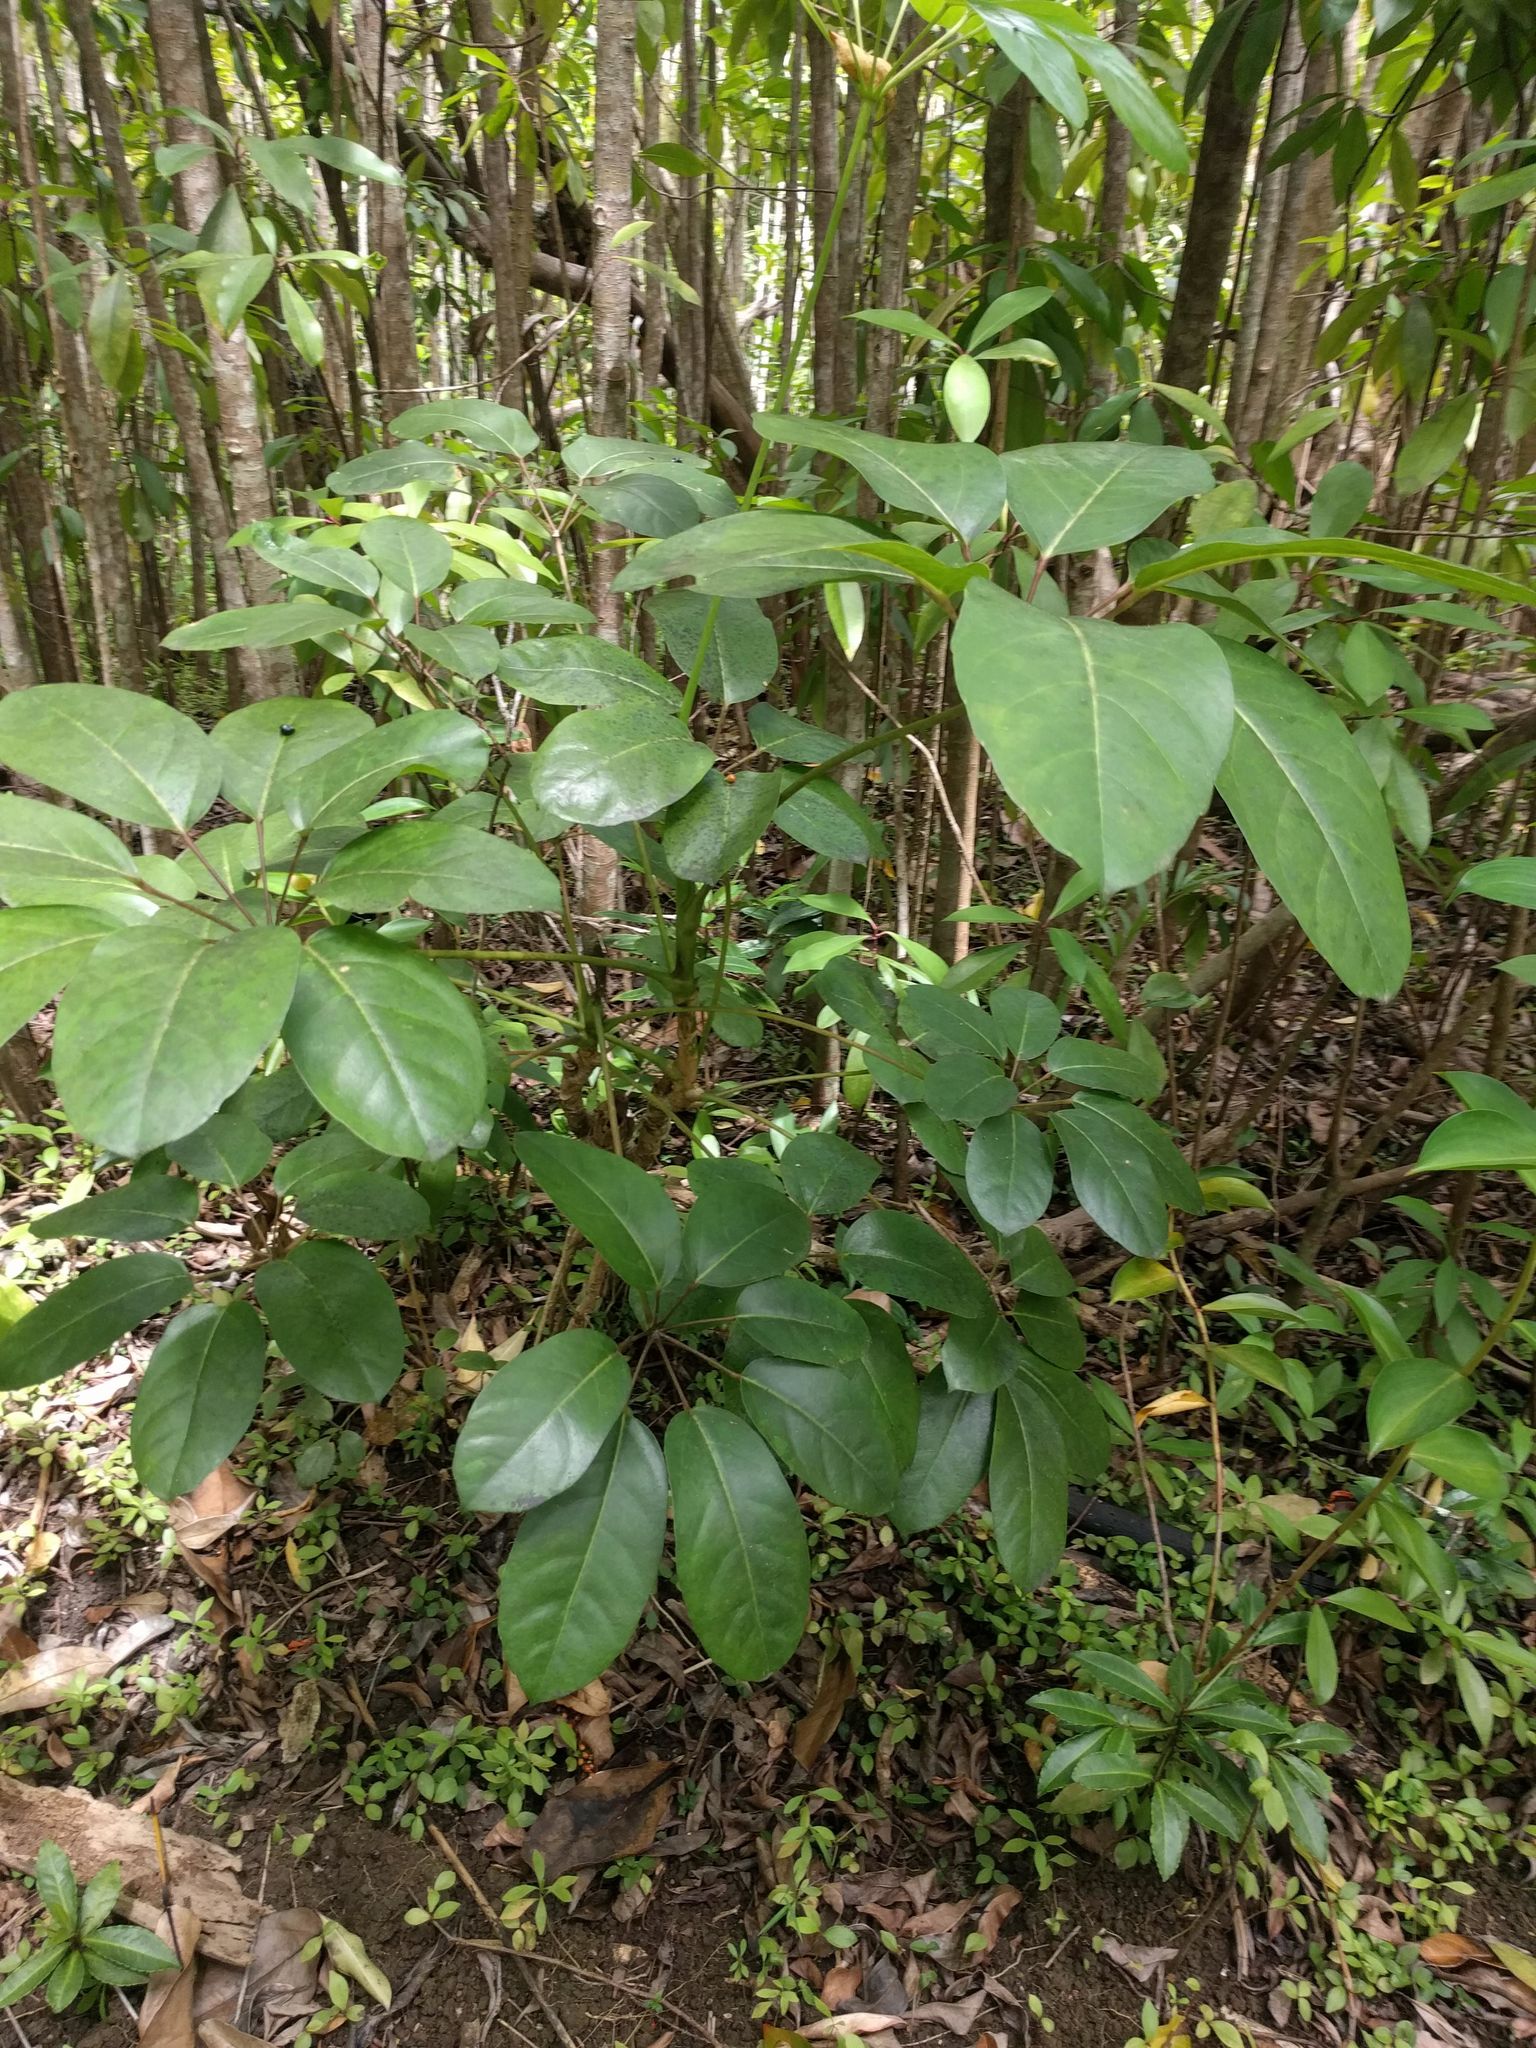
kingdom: Plantae
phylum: Tracheophyta
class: Magnoliopsida
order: Apiales
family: Araliaceae
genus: Heptapleurum
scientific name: Heptapleurum actinophyllum
